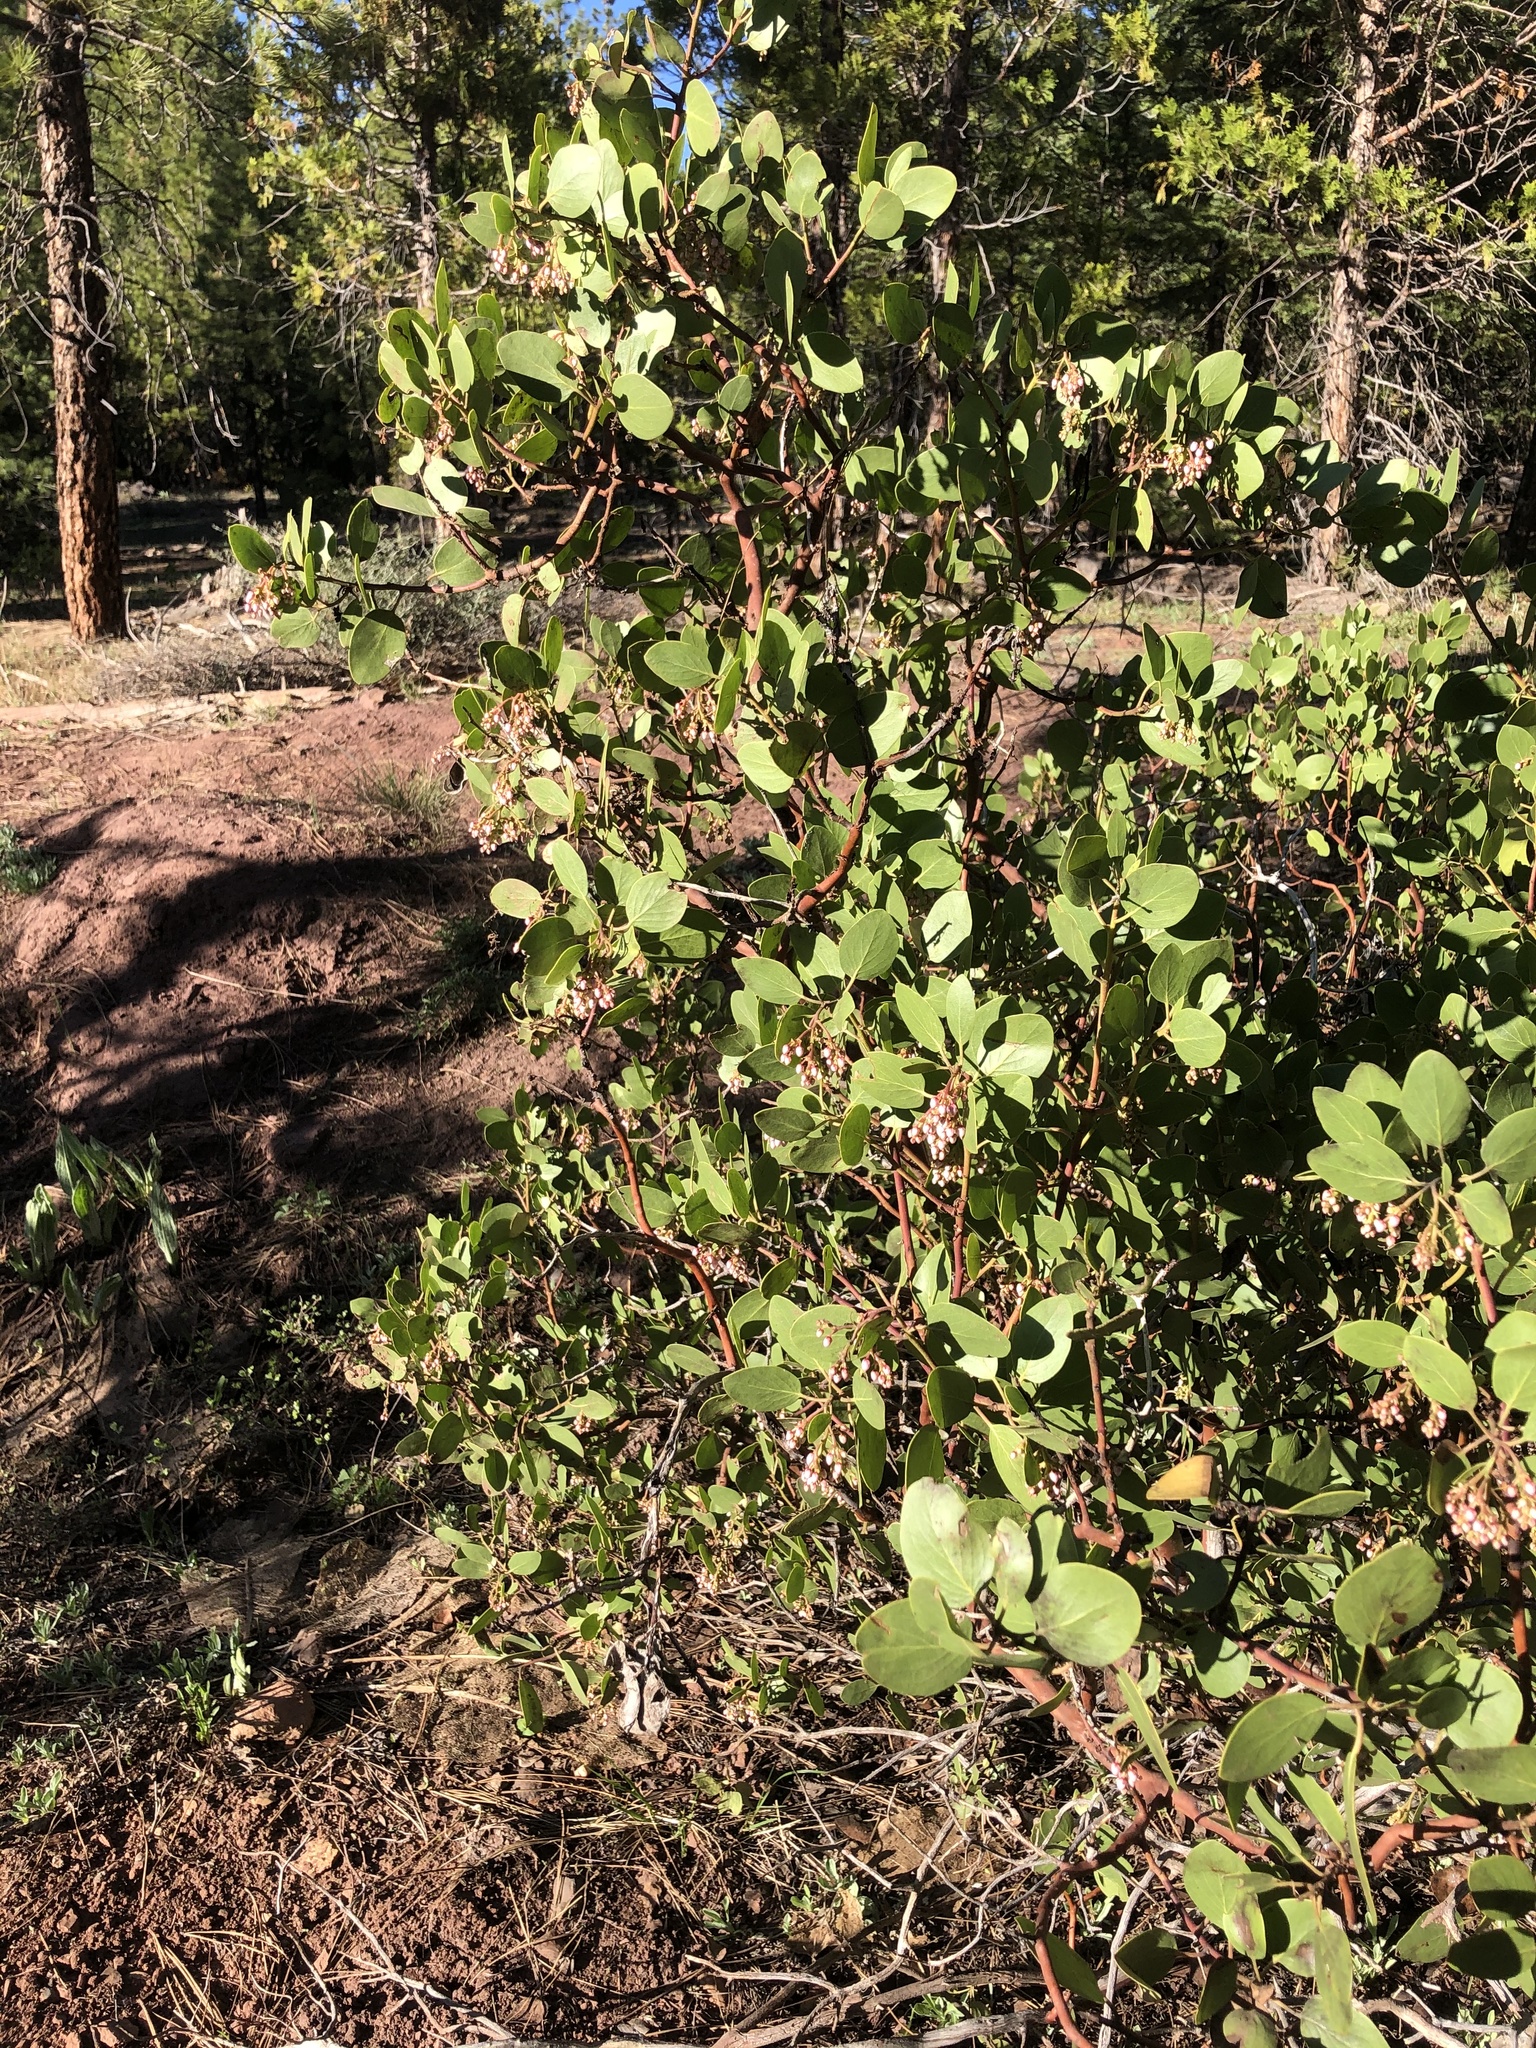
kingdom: Plantae
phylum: Tracheophyta
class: Magnoliopsida
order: Ericales
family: Ericaceae
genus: Arctostaphylos
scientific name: Arctostaphylos patula
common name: Green-leaf manzanita
